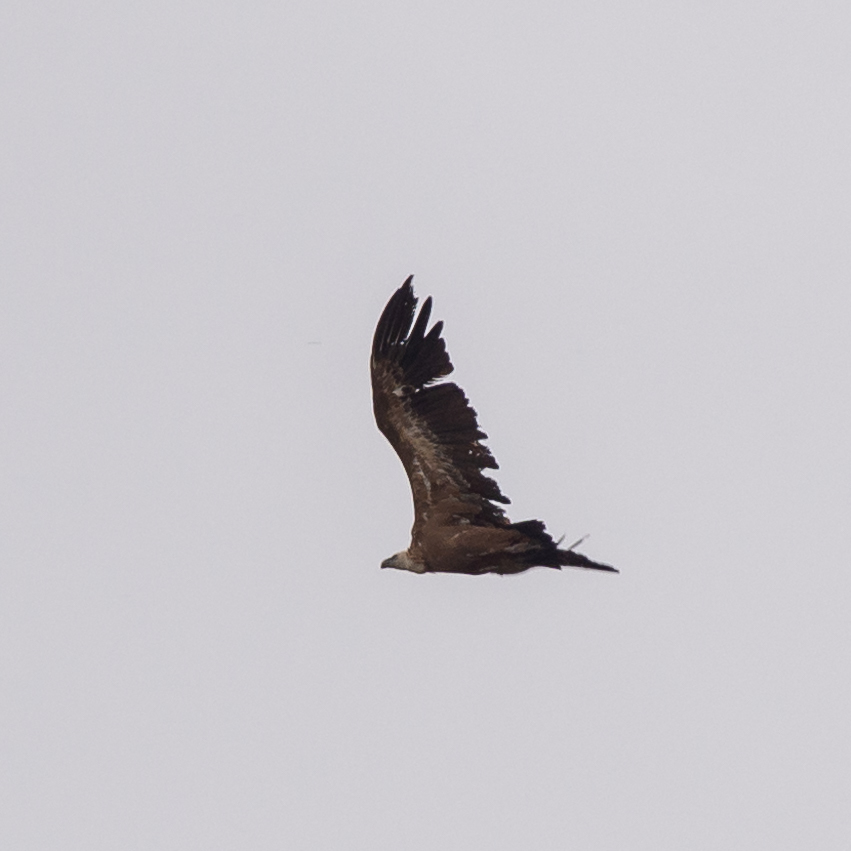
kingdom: Animalia
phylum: Chordata
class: Aves
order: Accipitriformes
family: Accipitridae
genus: Gyps
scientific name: Gyps fulvus
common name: Griffon vulture
